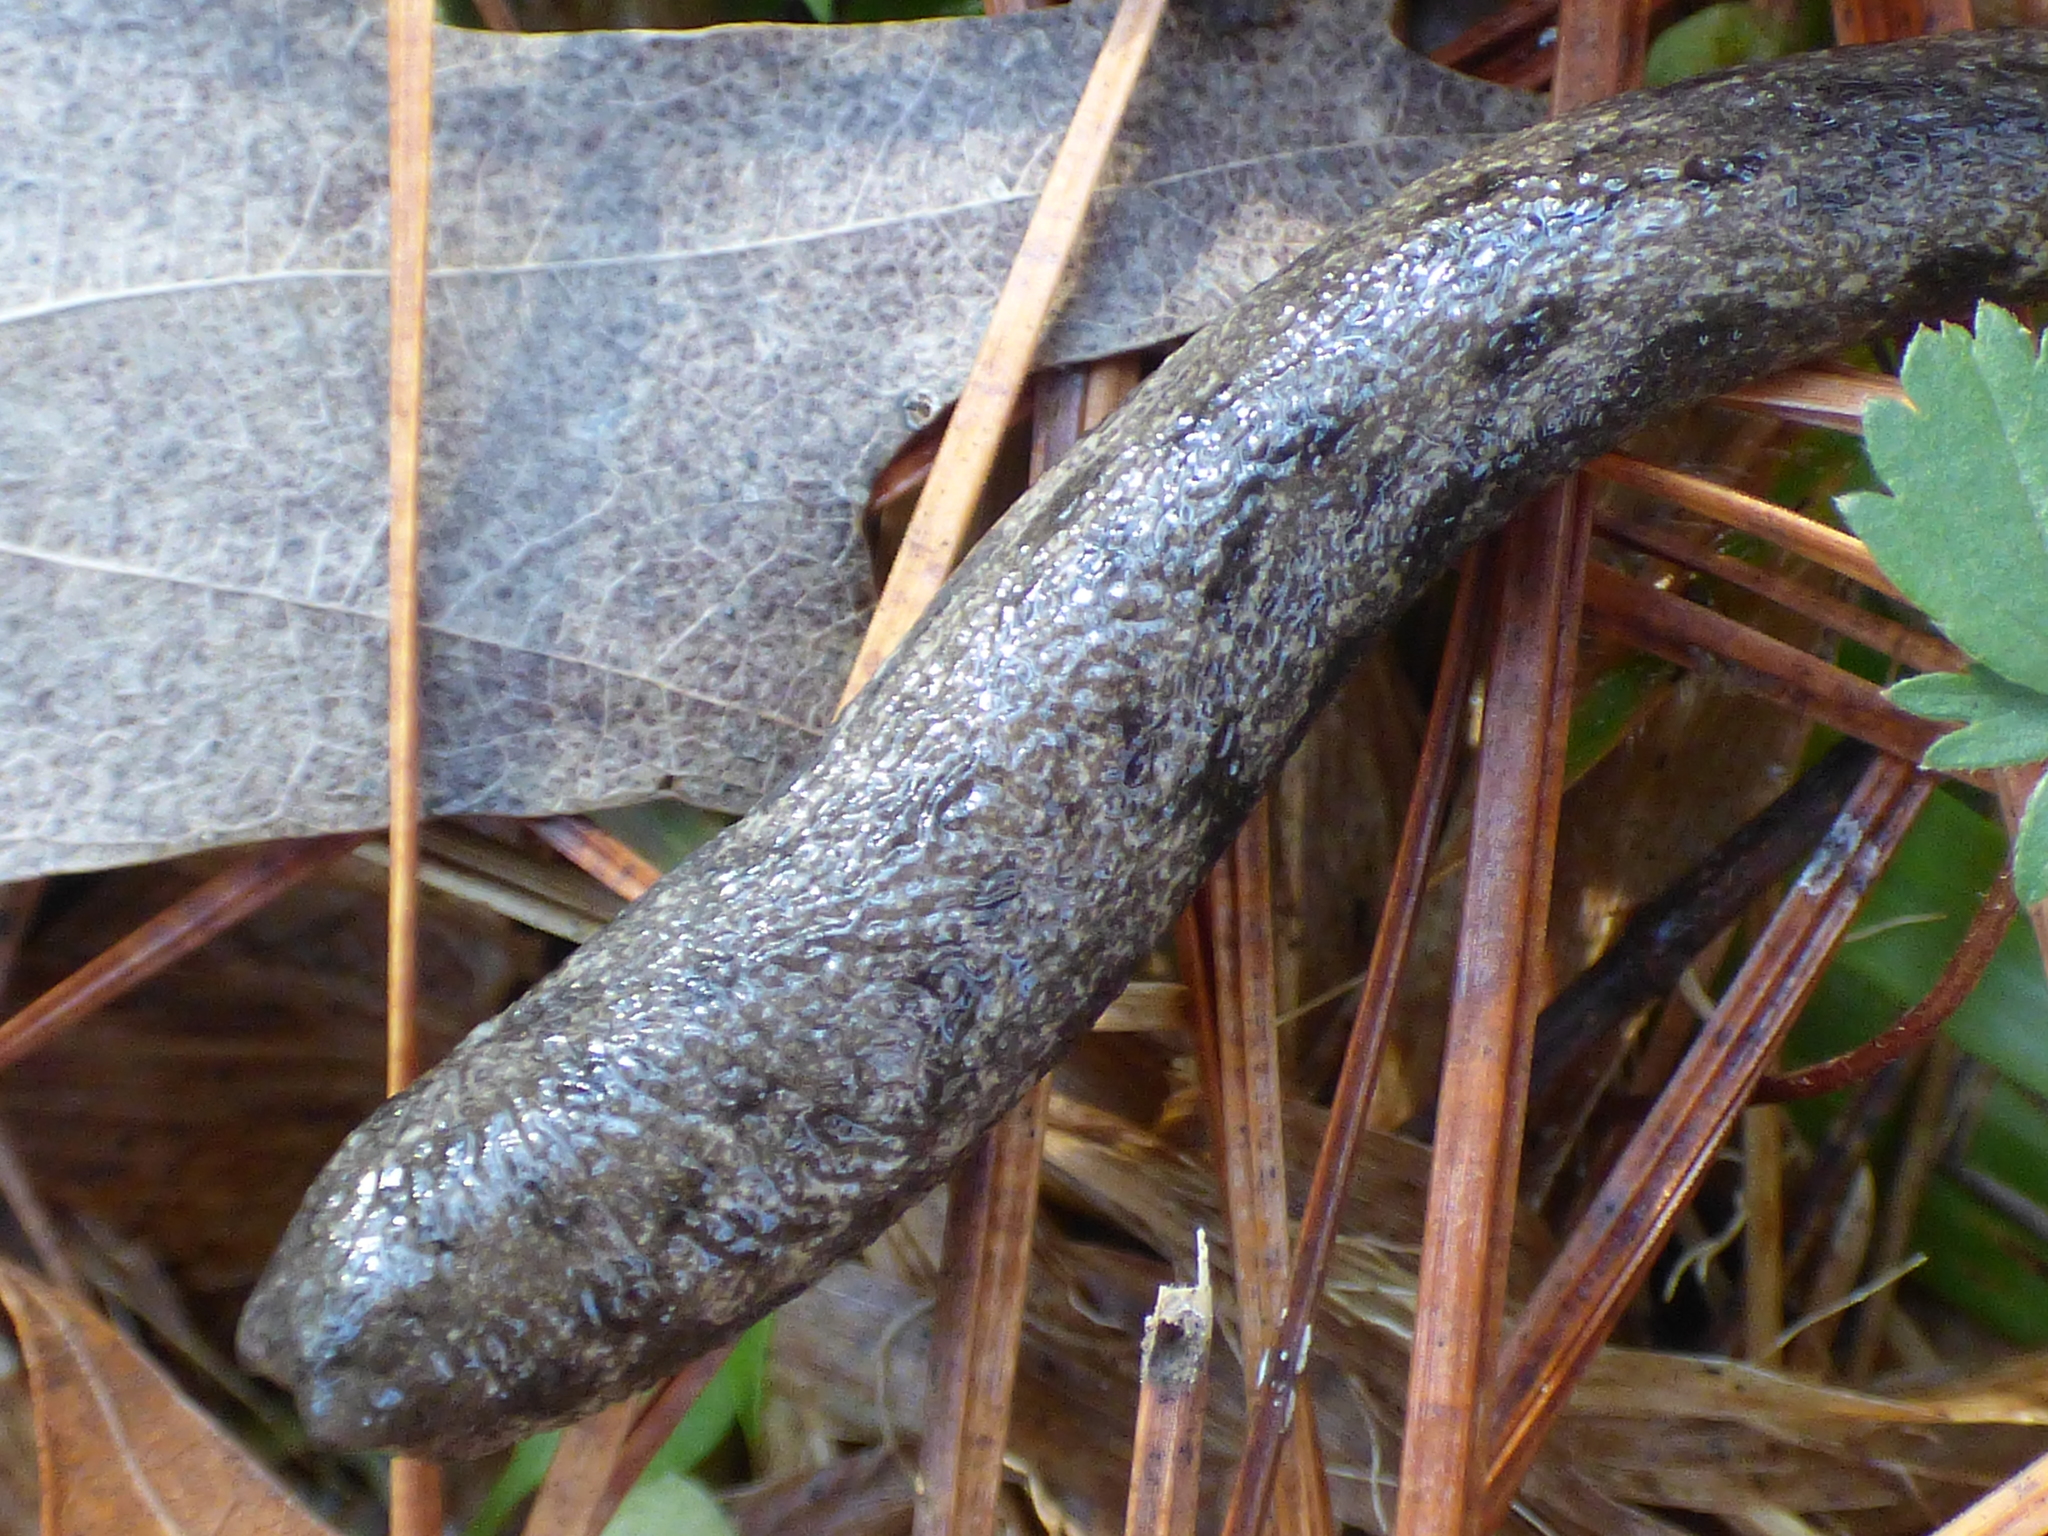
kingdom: Animalia
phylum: Mollusca
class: Gastropoda
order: Stylommatophora
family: Philomycidae
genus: Megapallifera
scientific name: Megapallifera mutabilis
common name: Changeable mantleslug
